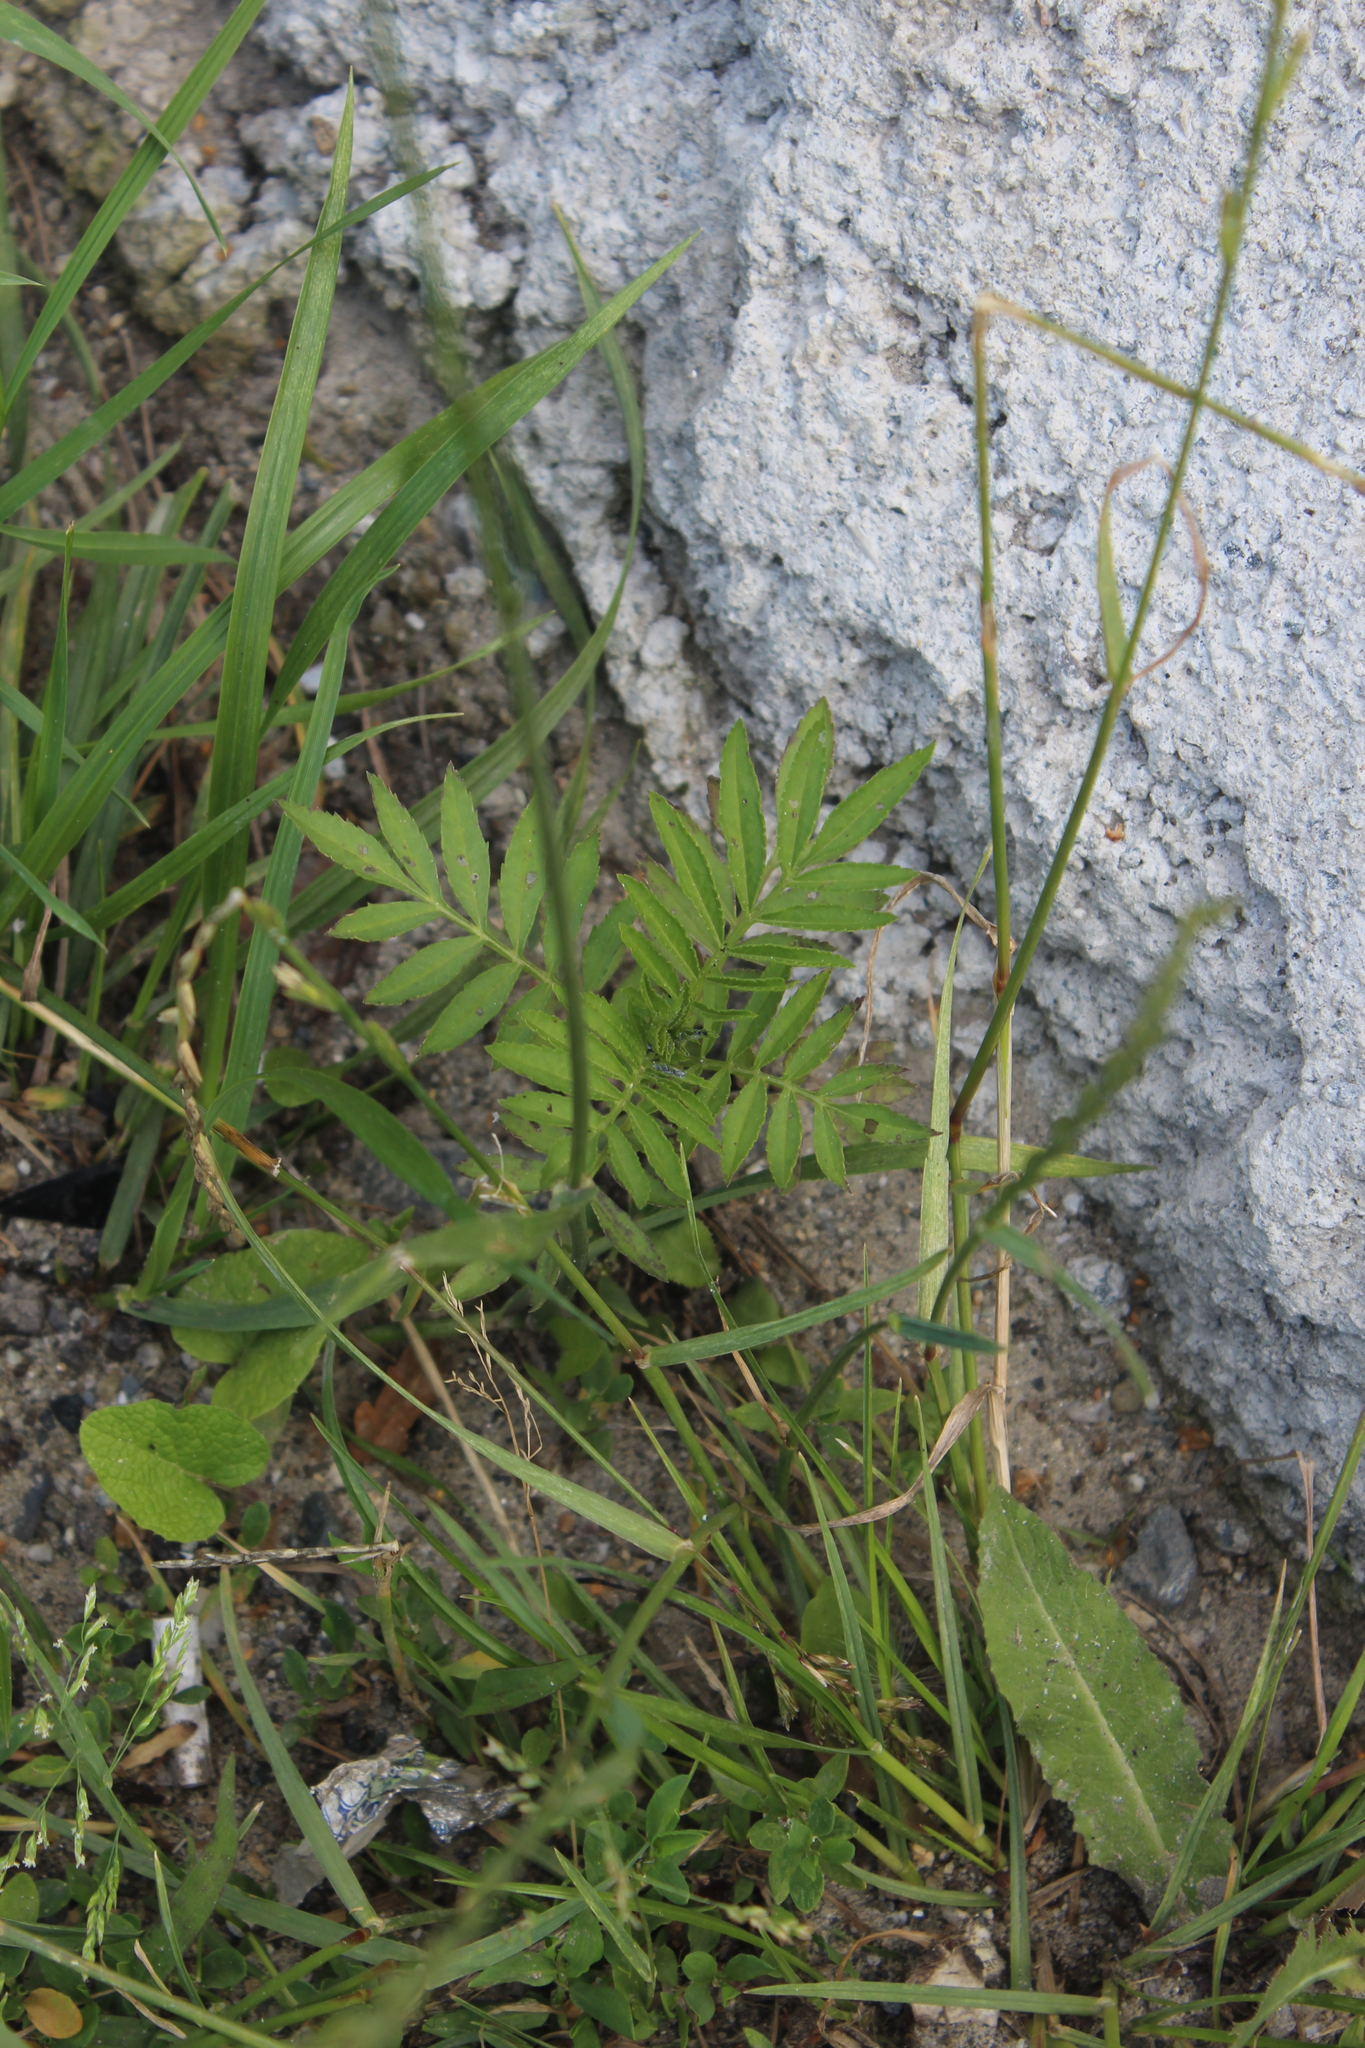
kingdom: Plantae
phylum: Tracheophyta
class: Magnoliopsida
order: Asterales
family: Asteraceae
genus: Tagetes
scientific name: Tagetes erecta
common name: African marigold
